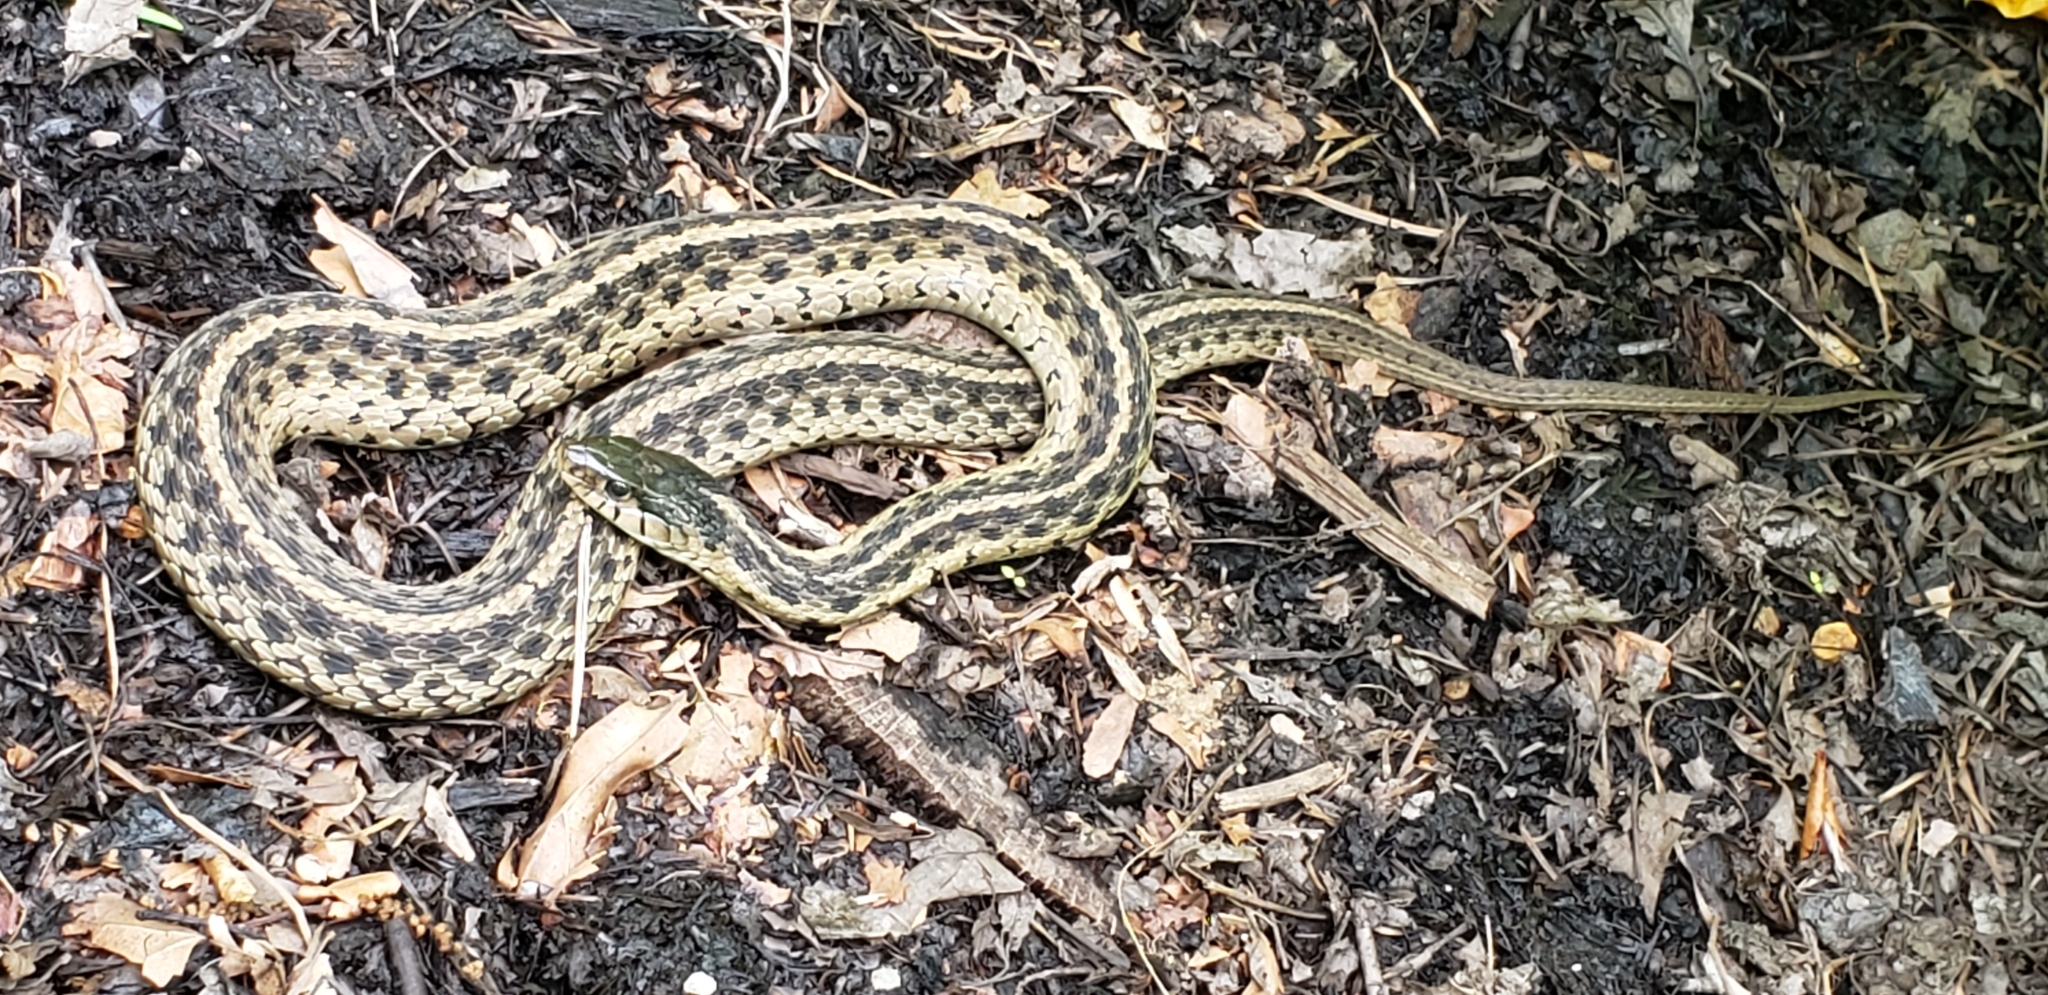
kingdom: Animalia
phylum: Chordata
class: Squamata
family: Colubridae
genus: Thamnophis
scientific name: Thamnophis sirtalis
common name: Common garter snake
